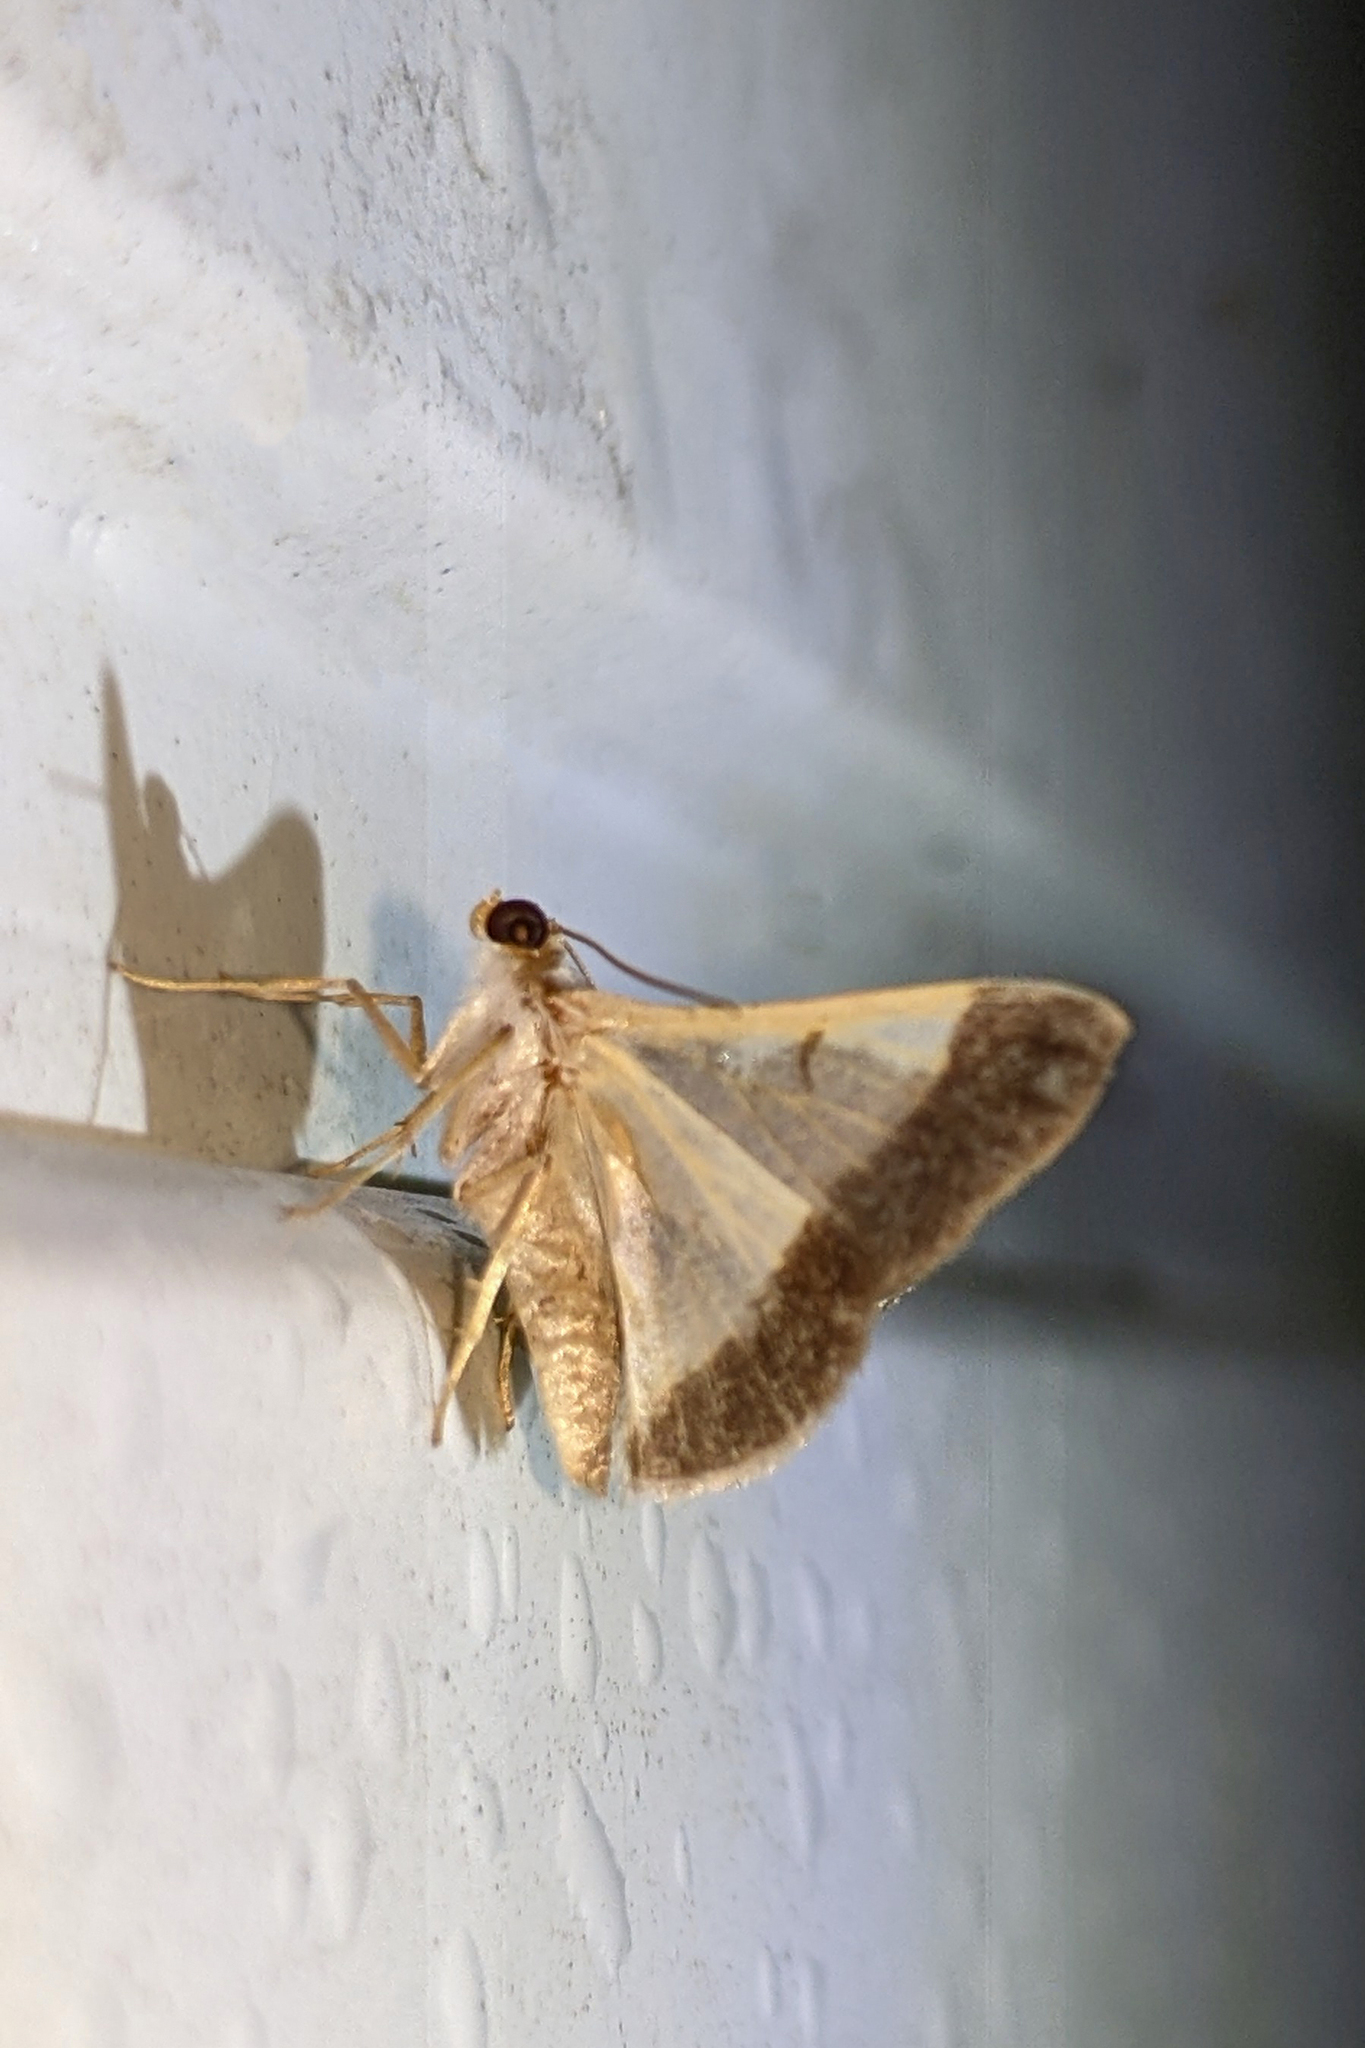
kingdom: Animalia
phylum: Arthropoda
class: Insecta
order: Lepidoptera
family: Geometridae
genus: Gyostega
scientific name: Gyostega floccosa
